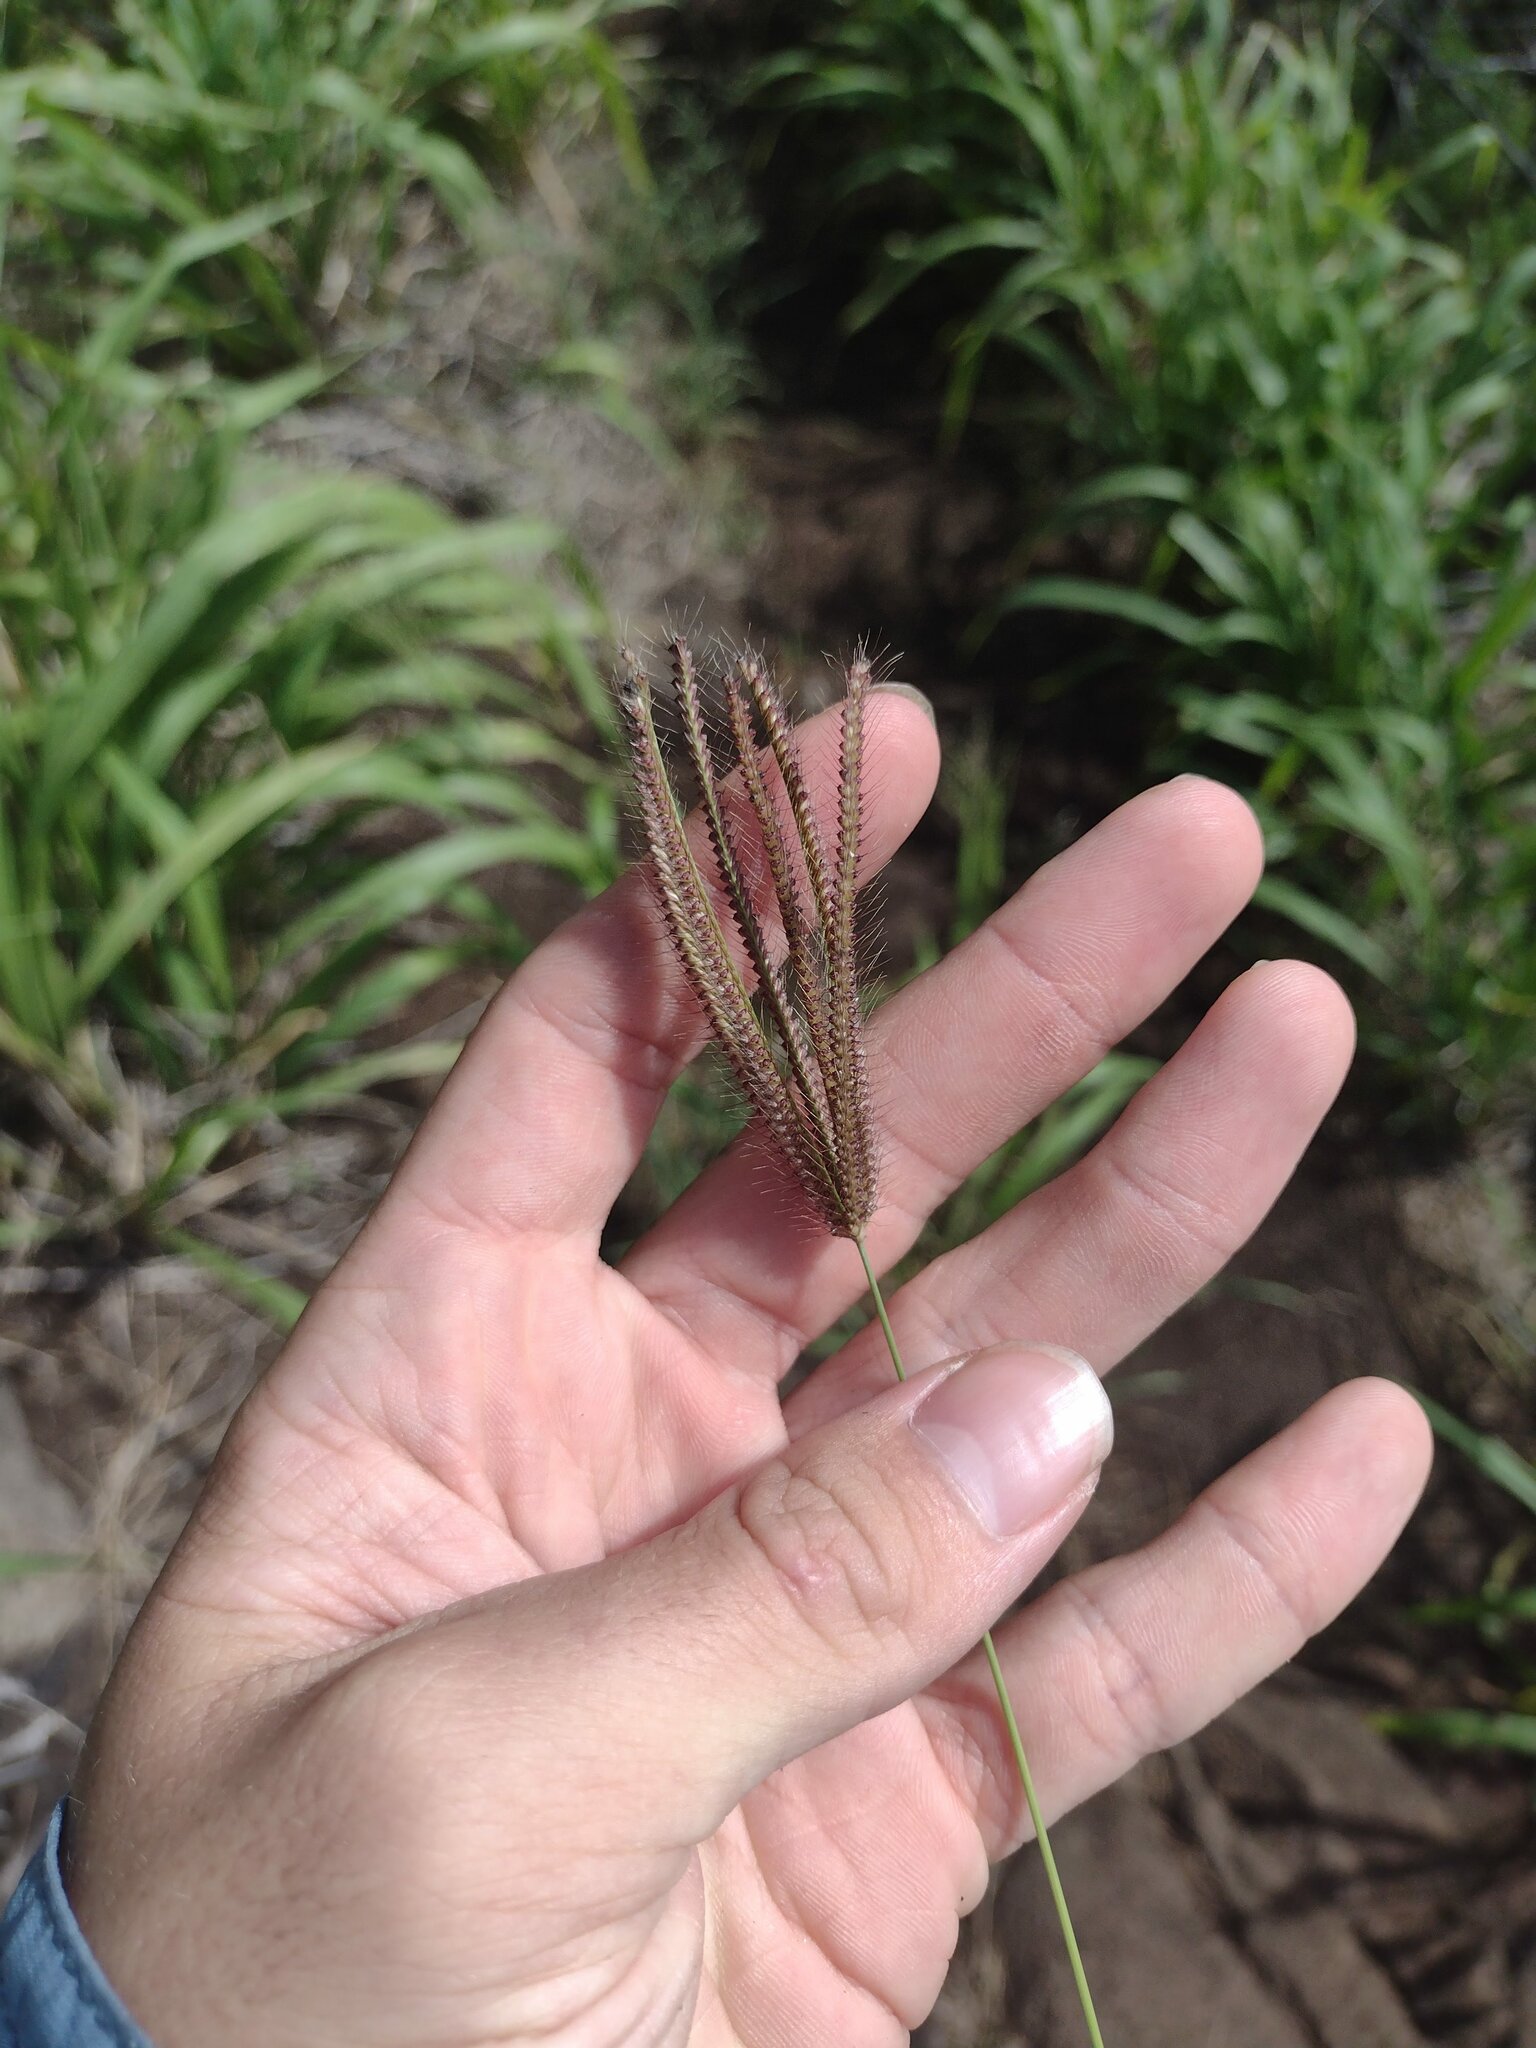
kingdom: Plantae
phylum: Tracheophyta
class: Liliopsida
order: Poales
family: Poaceae
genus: Chloris
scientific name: Chloris barbata
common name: Swollen fingergrass
